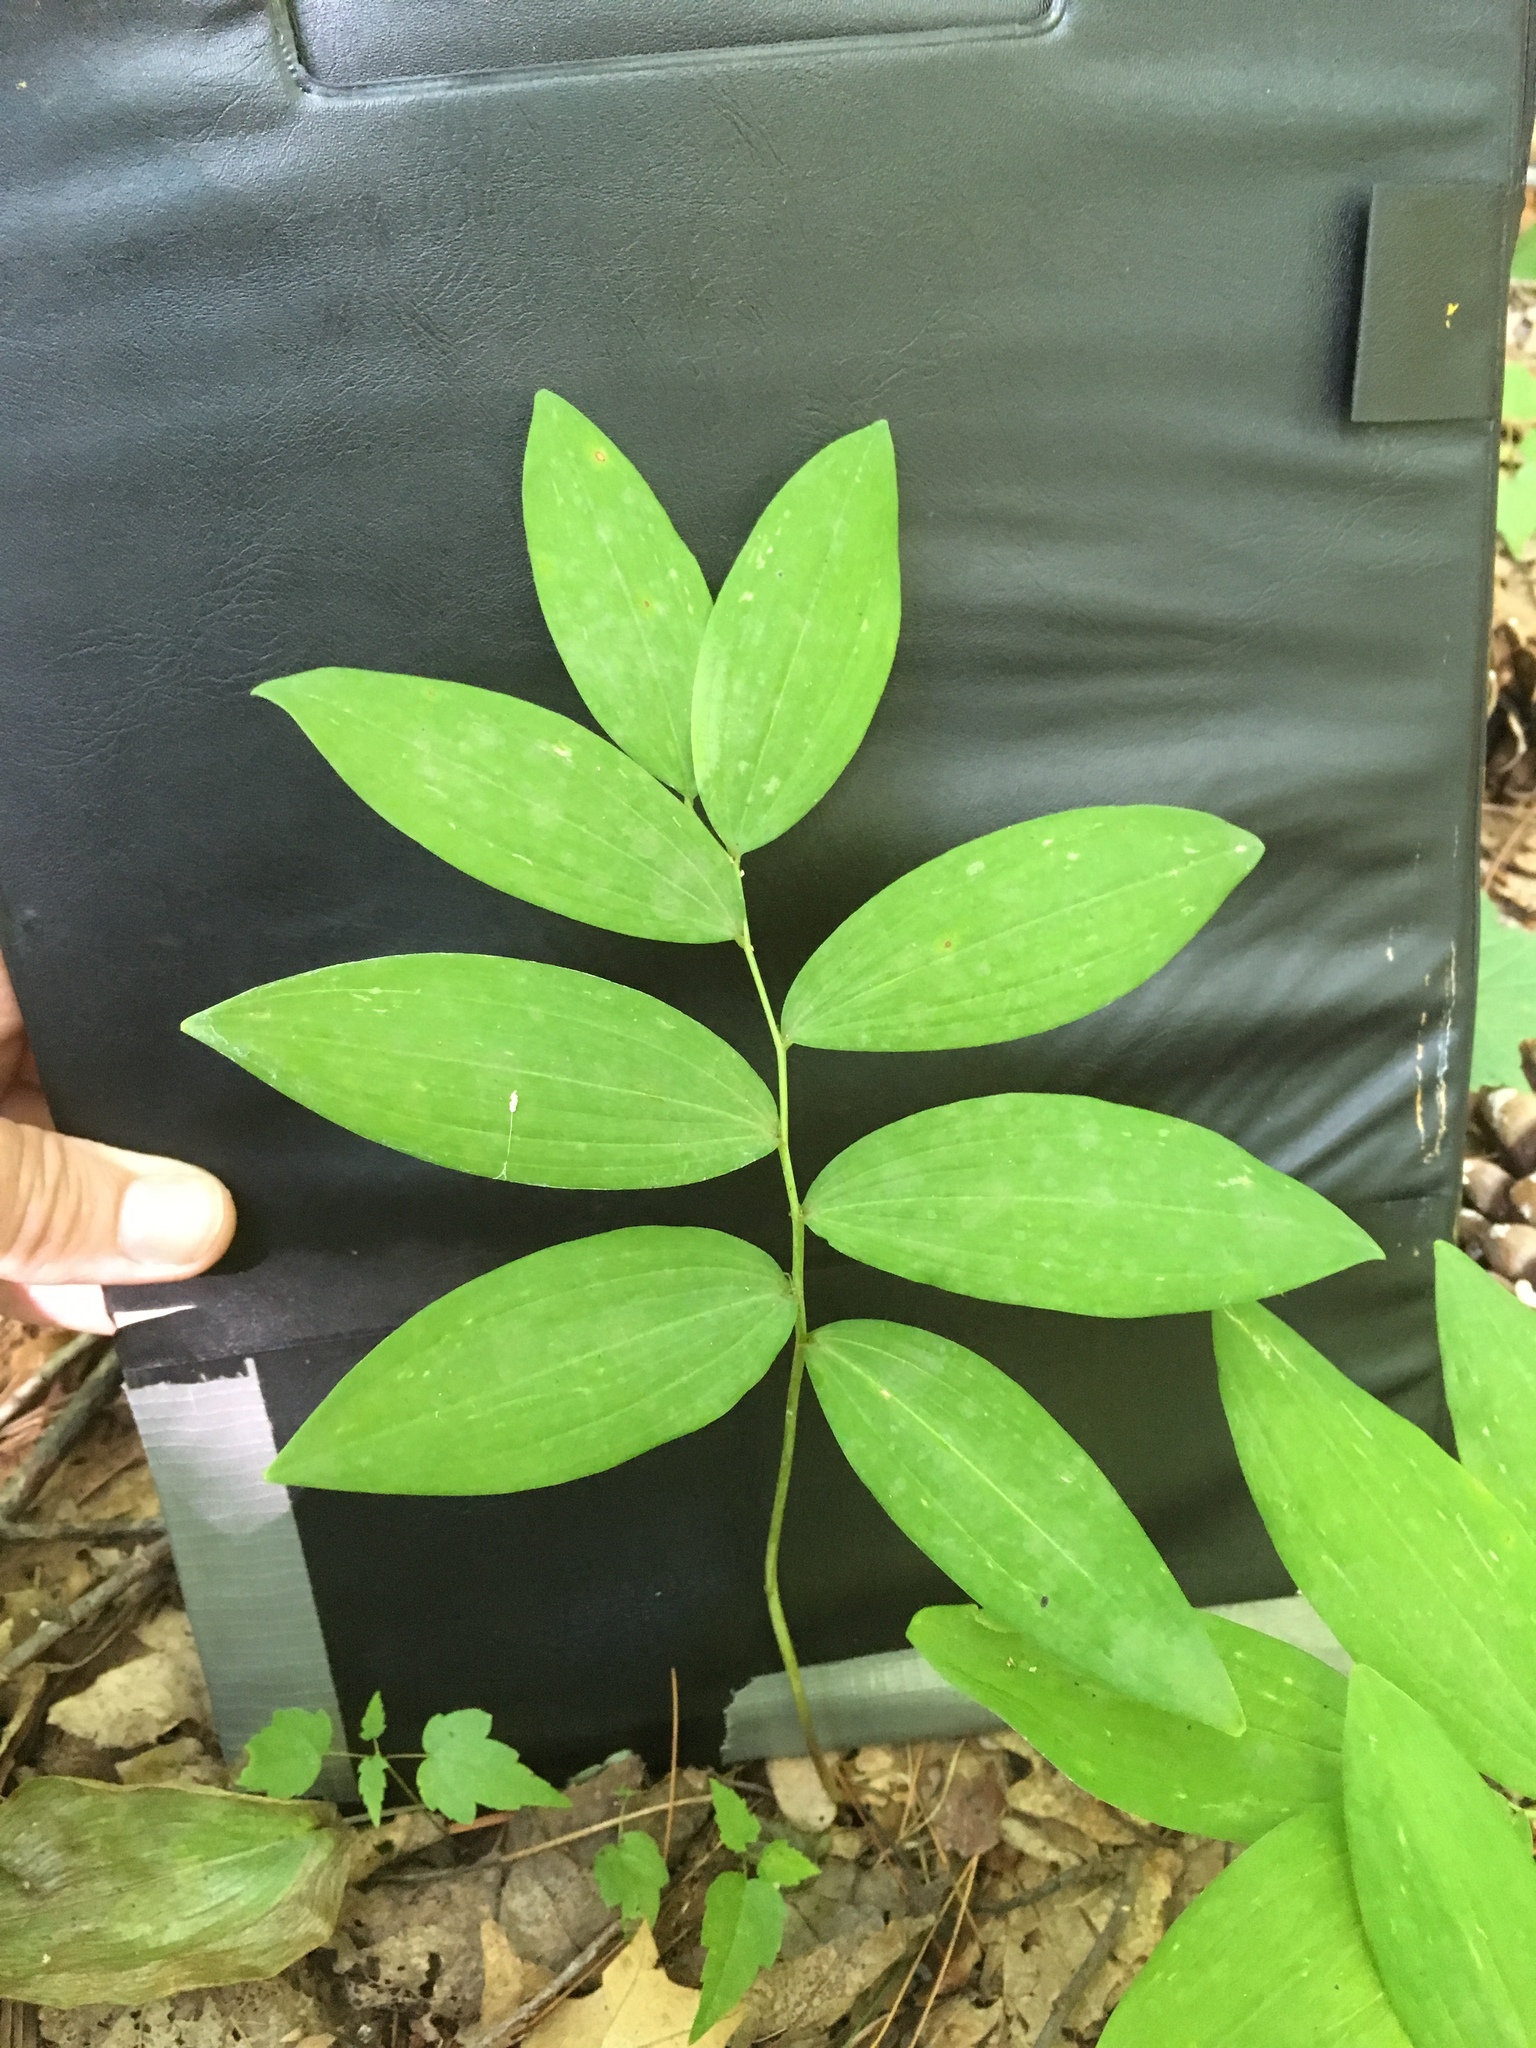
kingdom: Plantae
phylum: Tracheophyta
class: Liliopsida
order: Asparagales
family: Asparagaceae
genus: Polygonatum
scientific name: Polygonatum pubescens
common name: Downy solomon's seal
